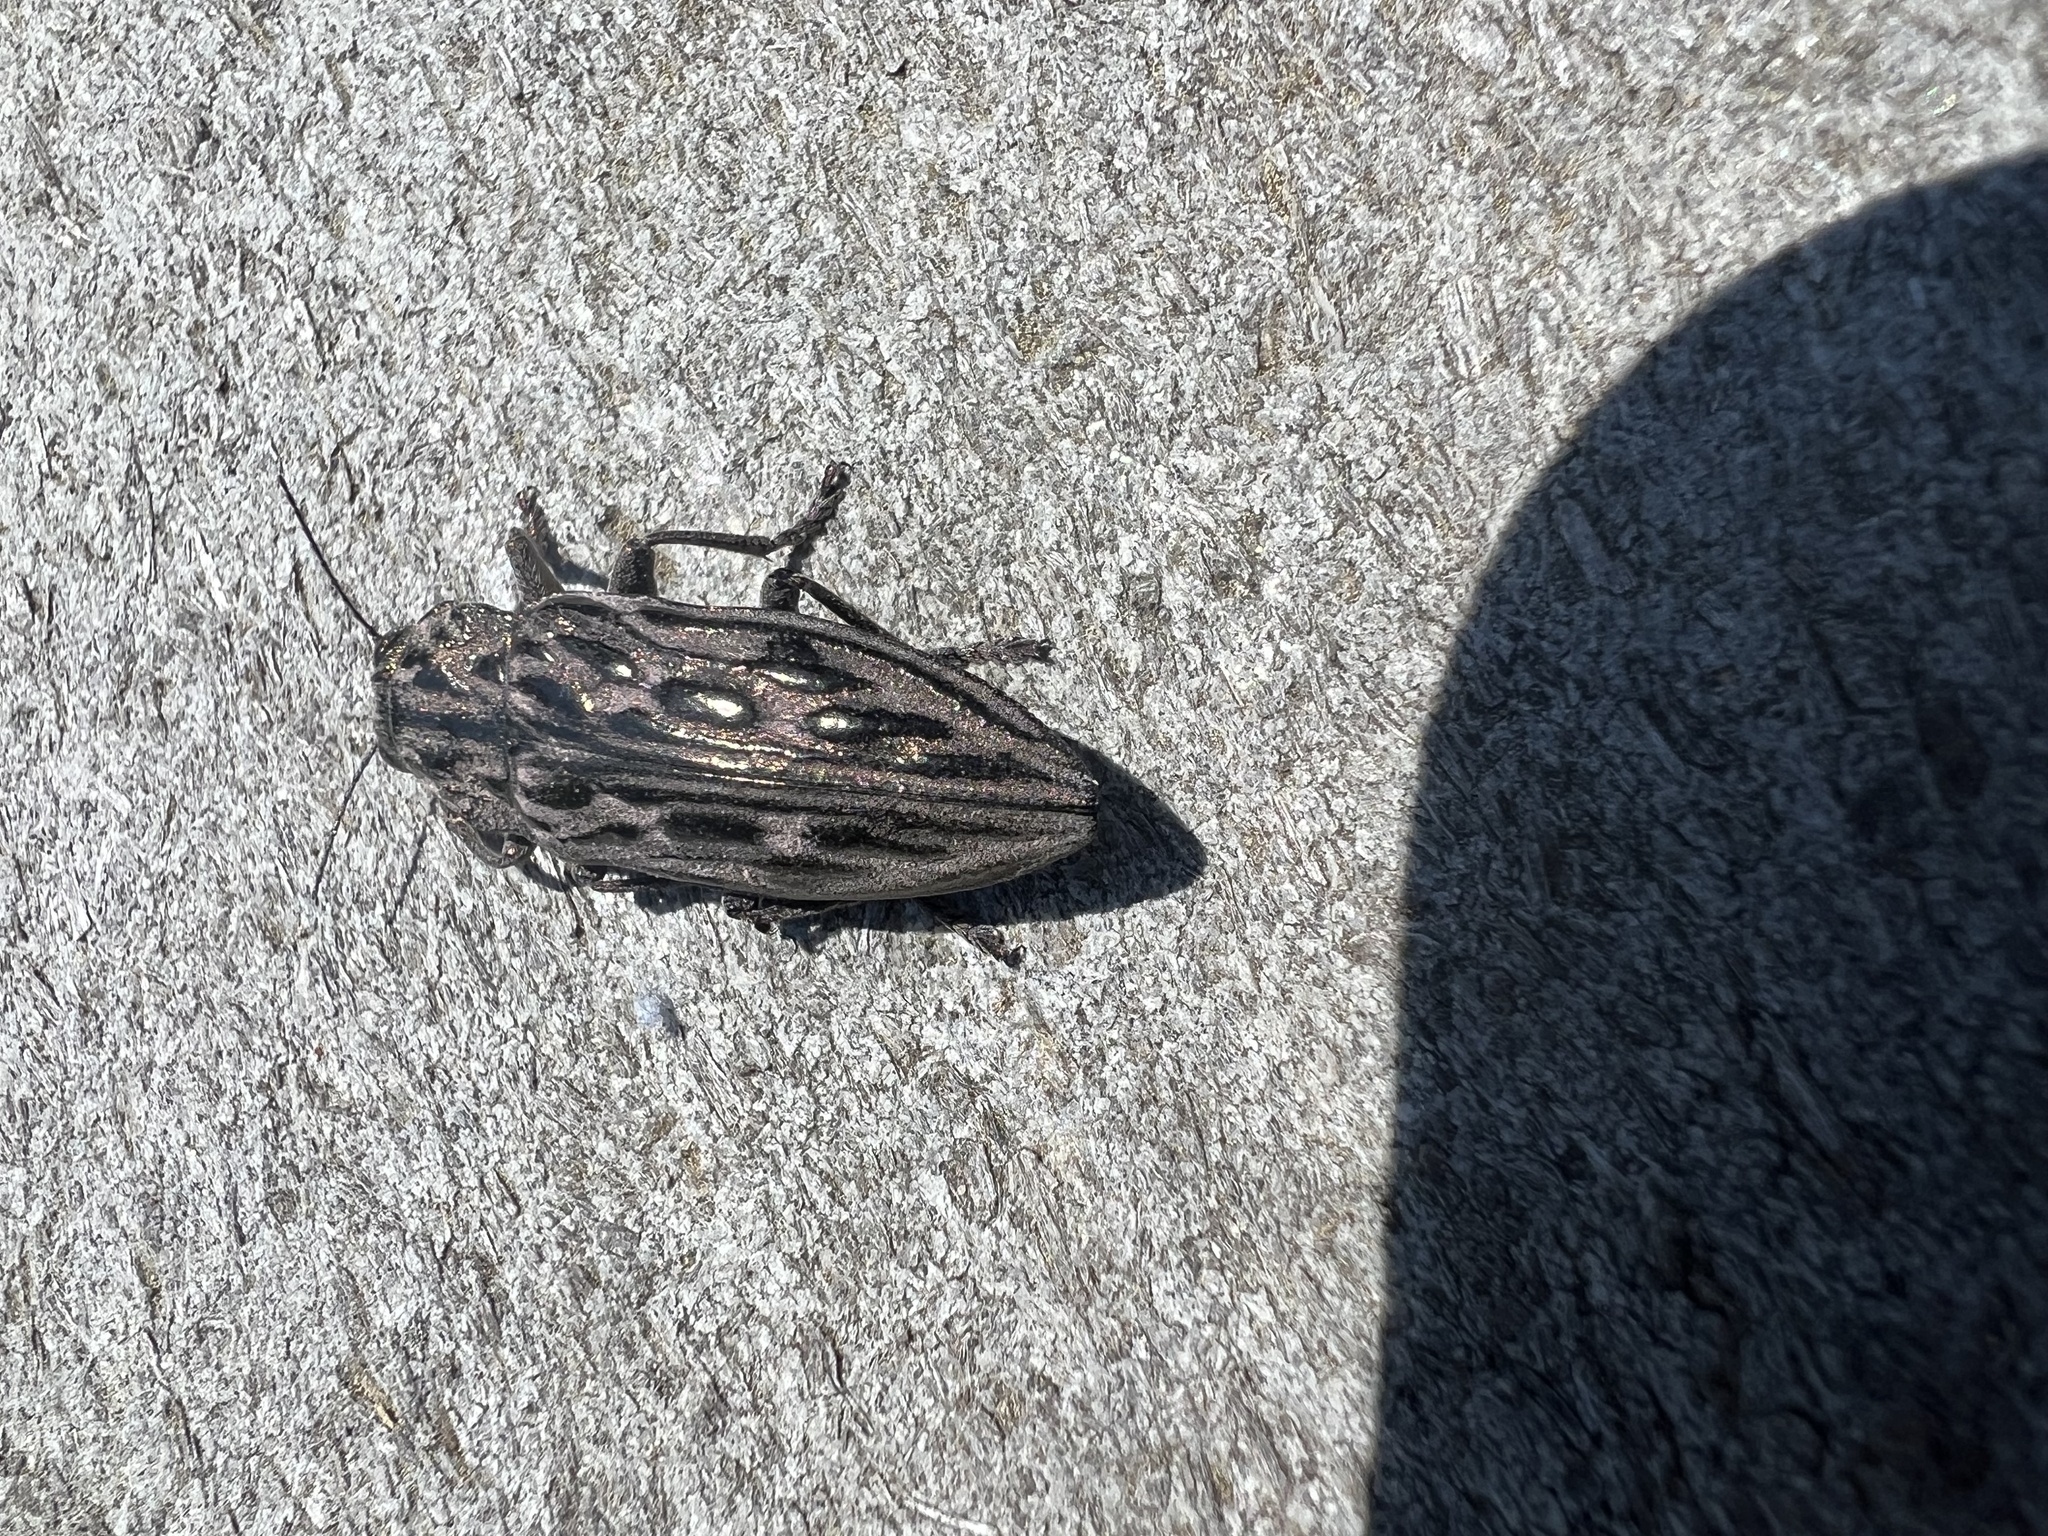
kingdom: Animalia
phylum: Arthropoda
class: Insecta
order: Coleoptera
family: Buprestidae
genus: Chalcophora
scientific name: Chalcophora angulicollis
